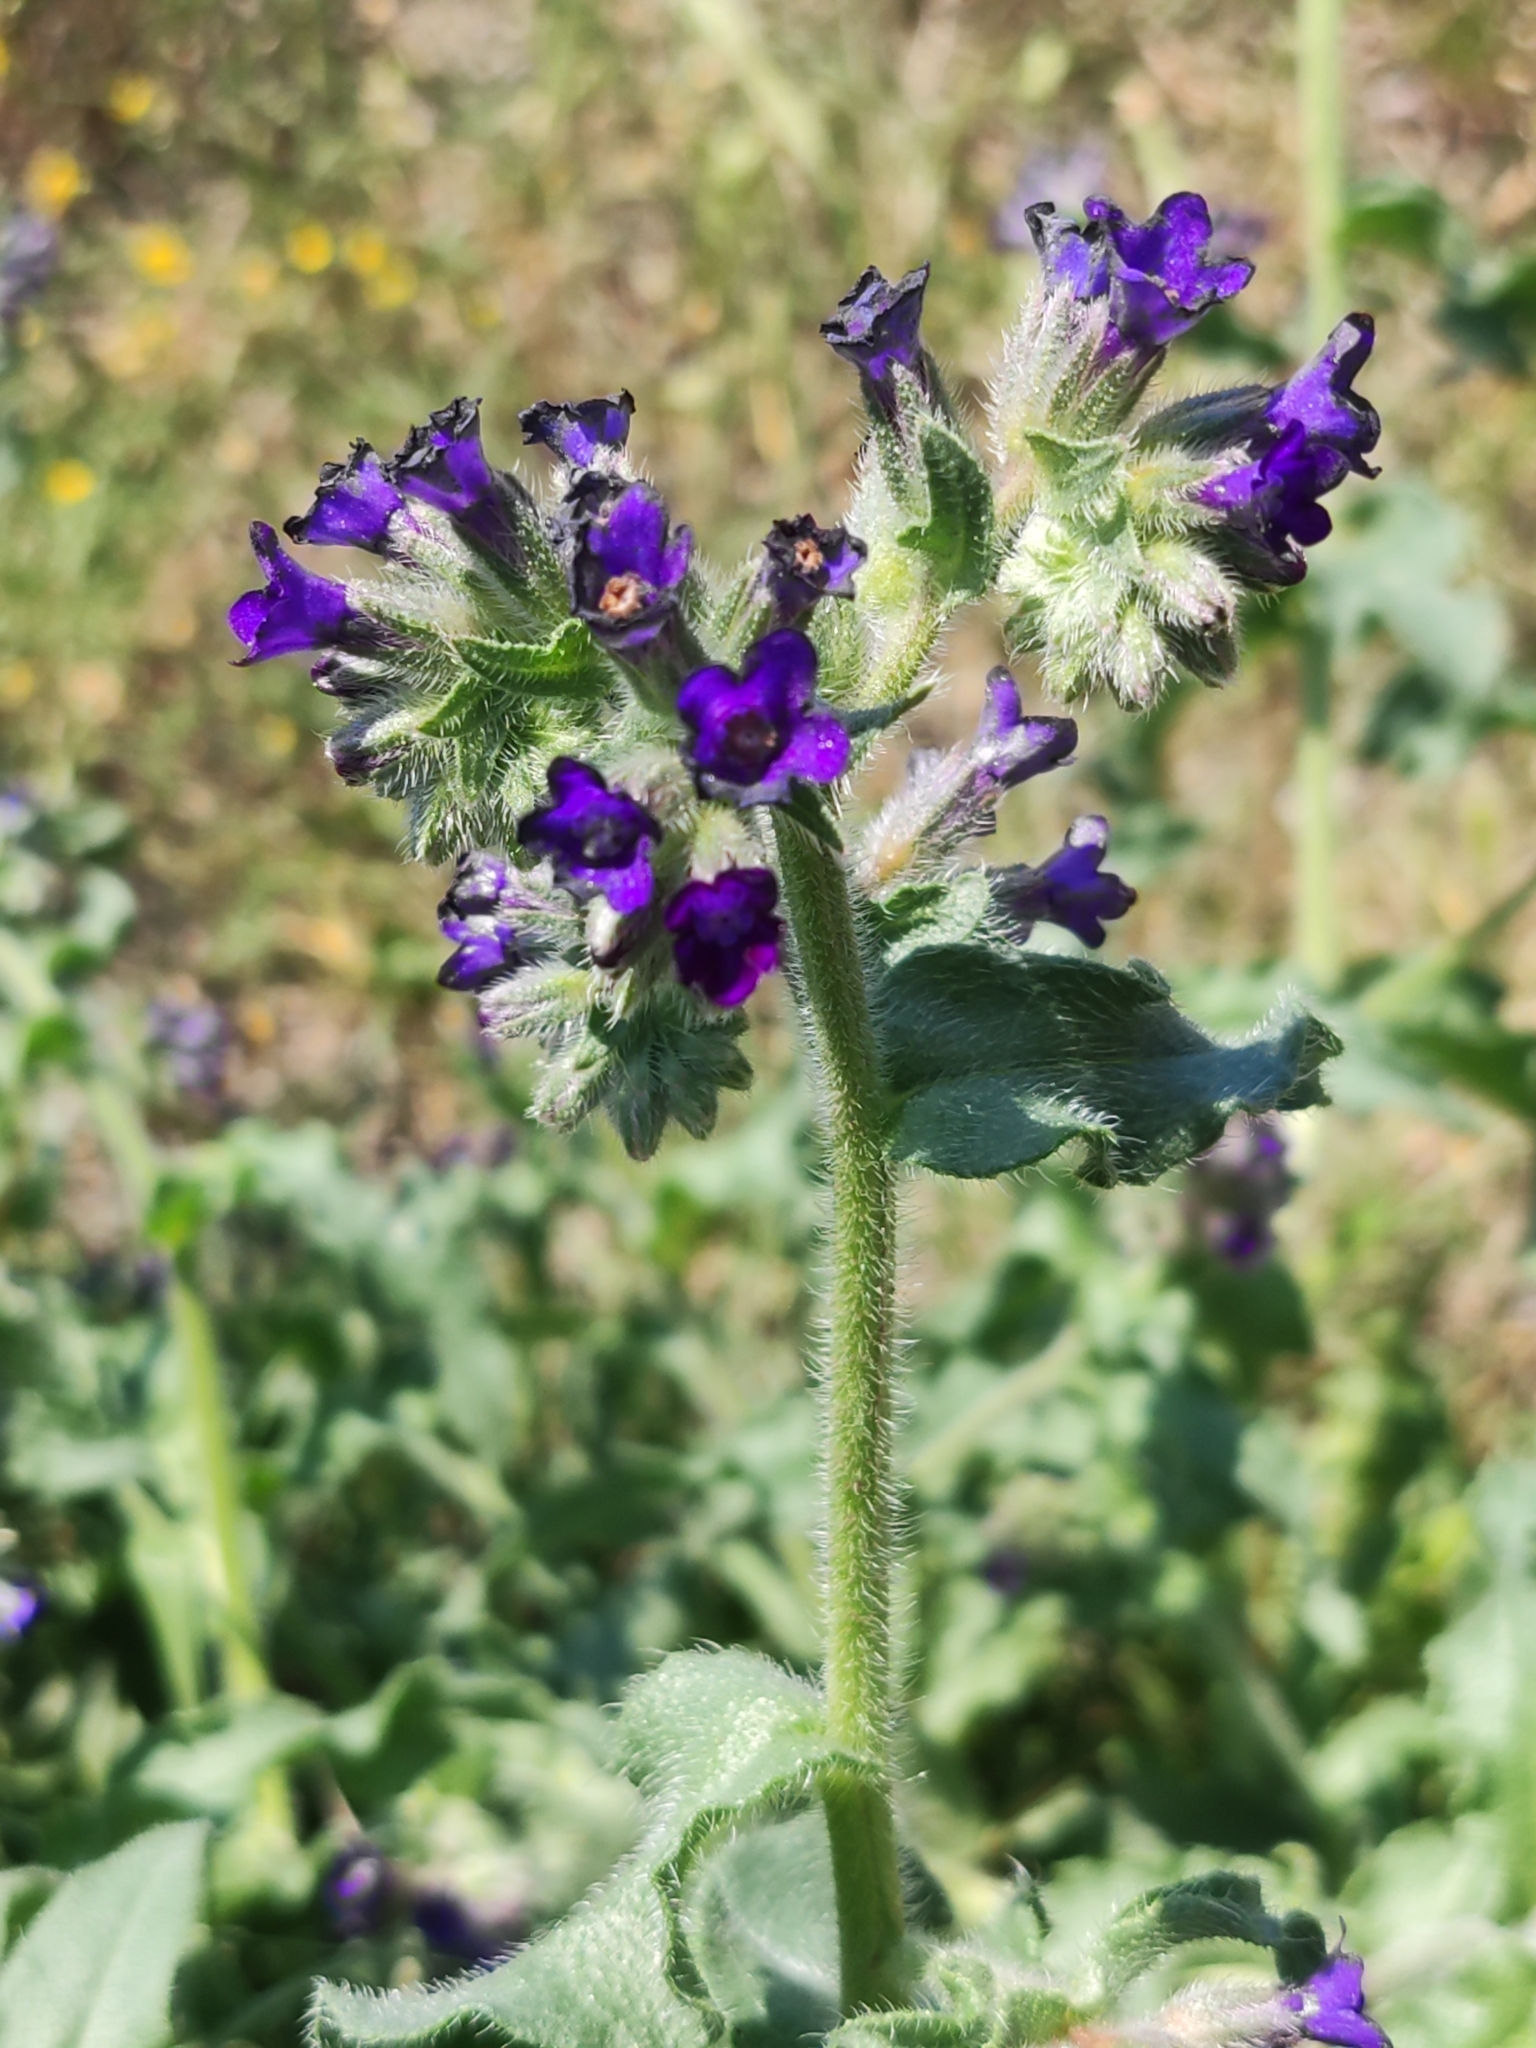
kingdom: Plantae
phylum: Tracheophyta
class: Magnoliopsida
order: Boraginales
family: Boraginaceae
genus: Anchusa
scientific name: Anchusa officinalis
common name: Alkanet
